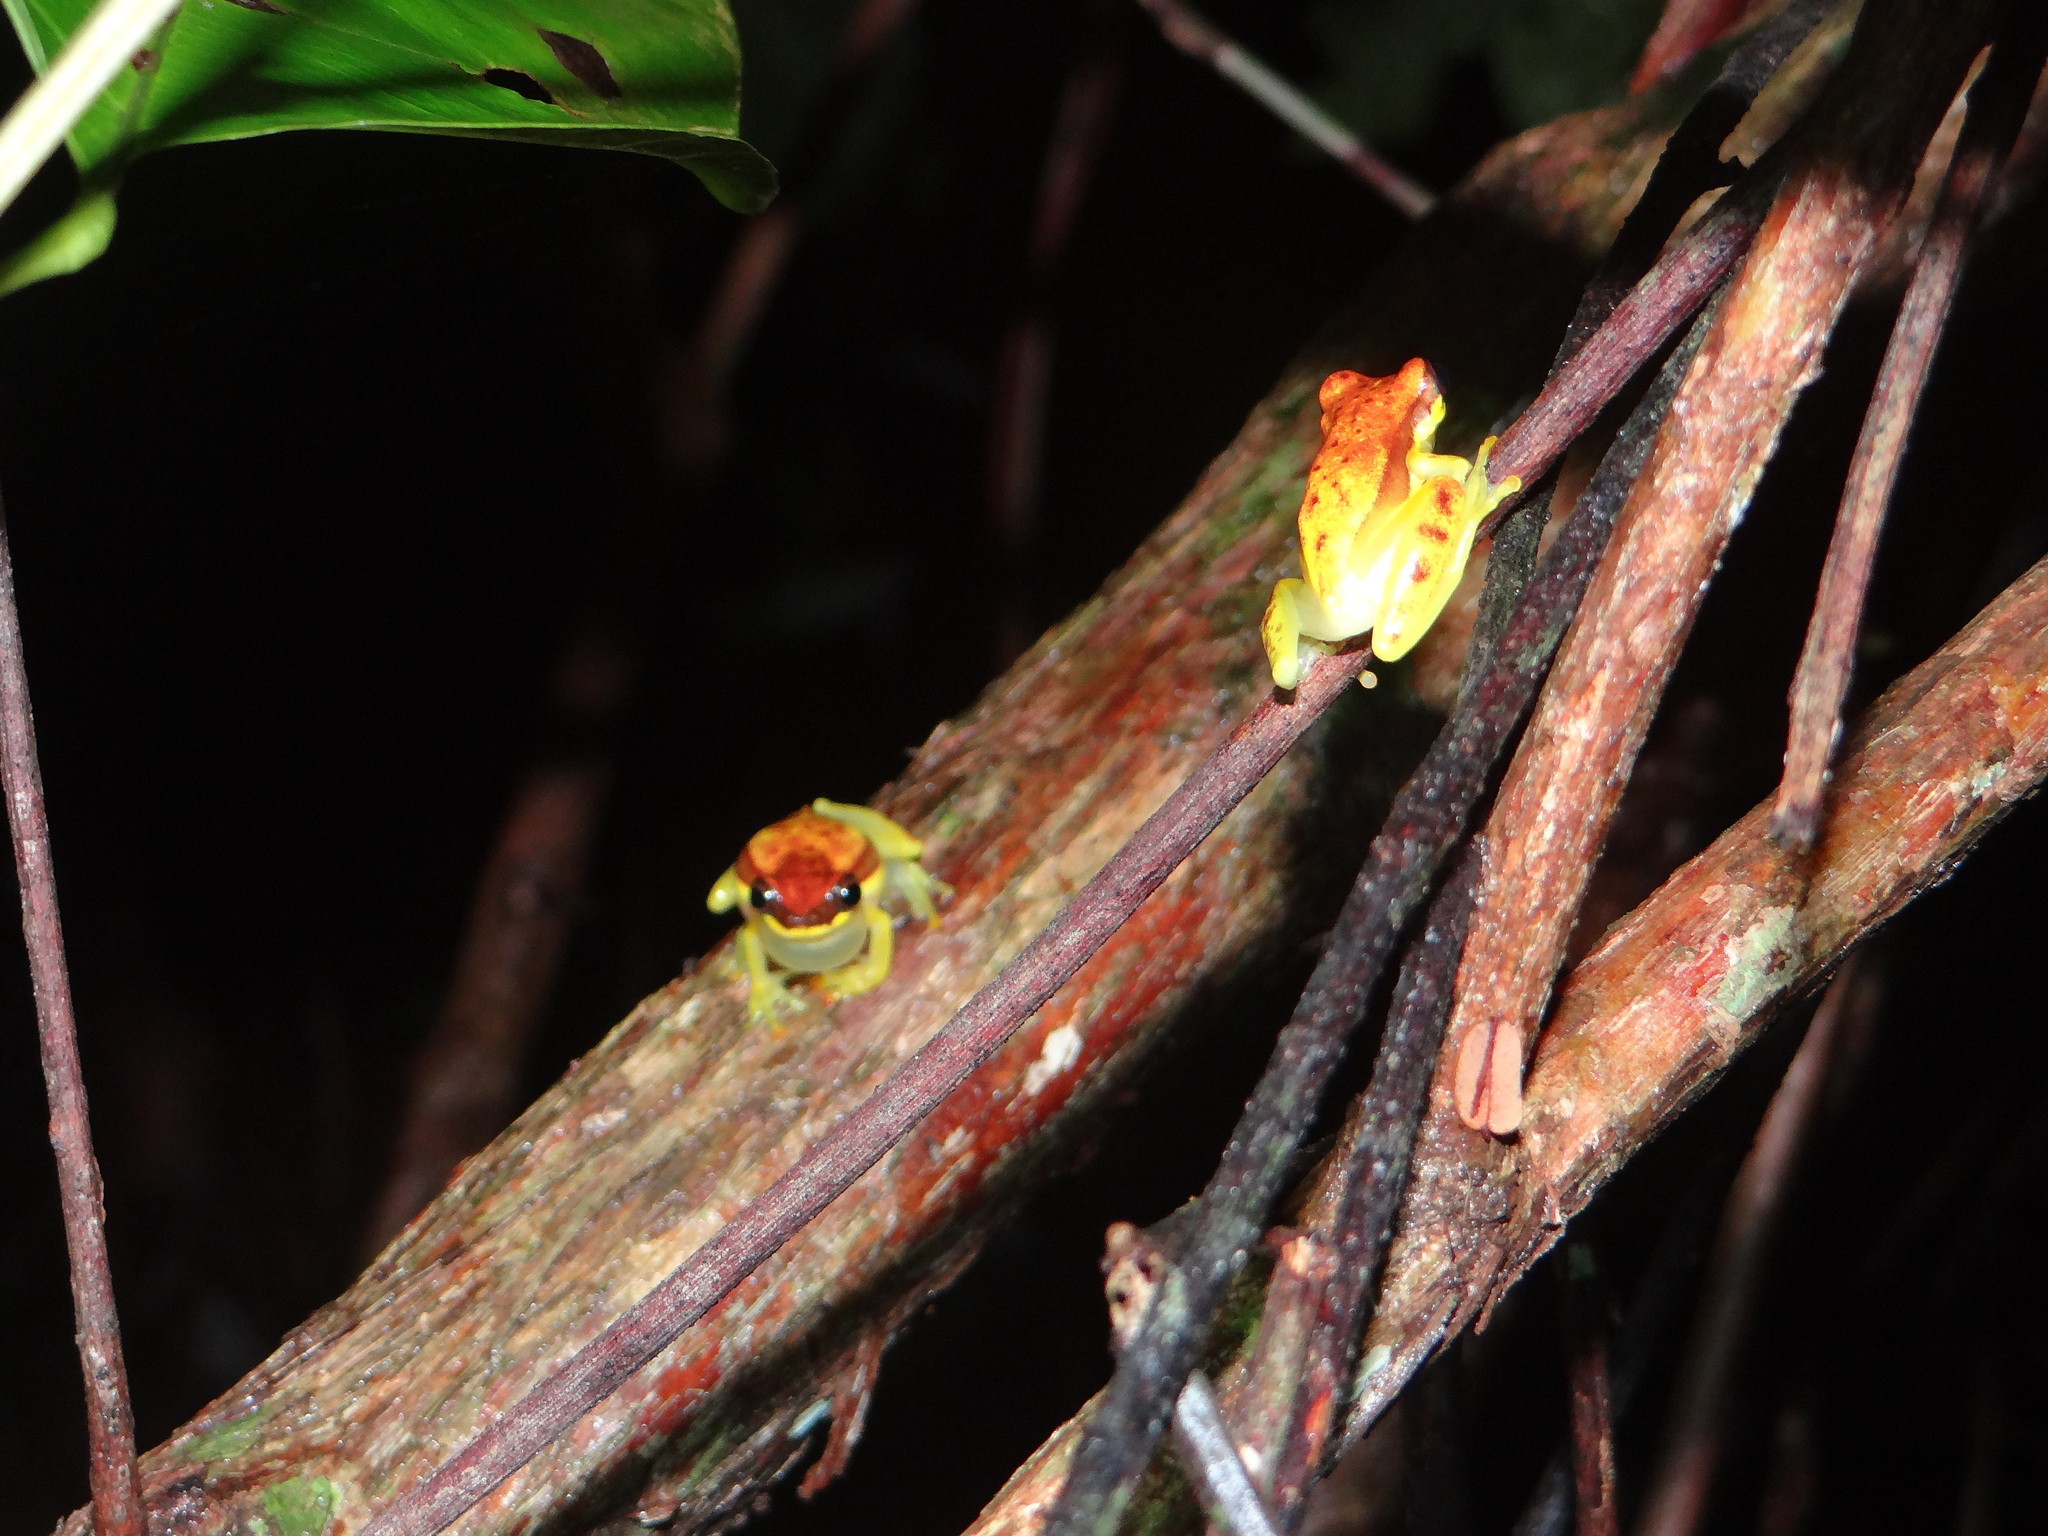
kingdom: Animalia
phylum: Chordata
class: Amphibia
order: Anura
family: Hylidae
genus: Dendropsophus
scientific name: Dendropsophus rhodopeplus
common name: Red-skirted treefrog
